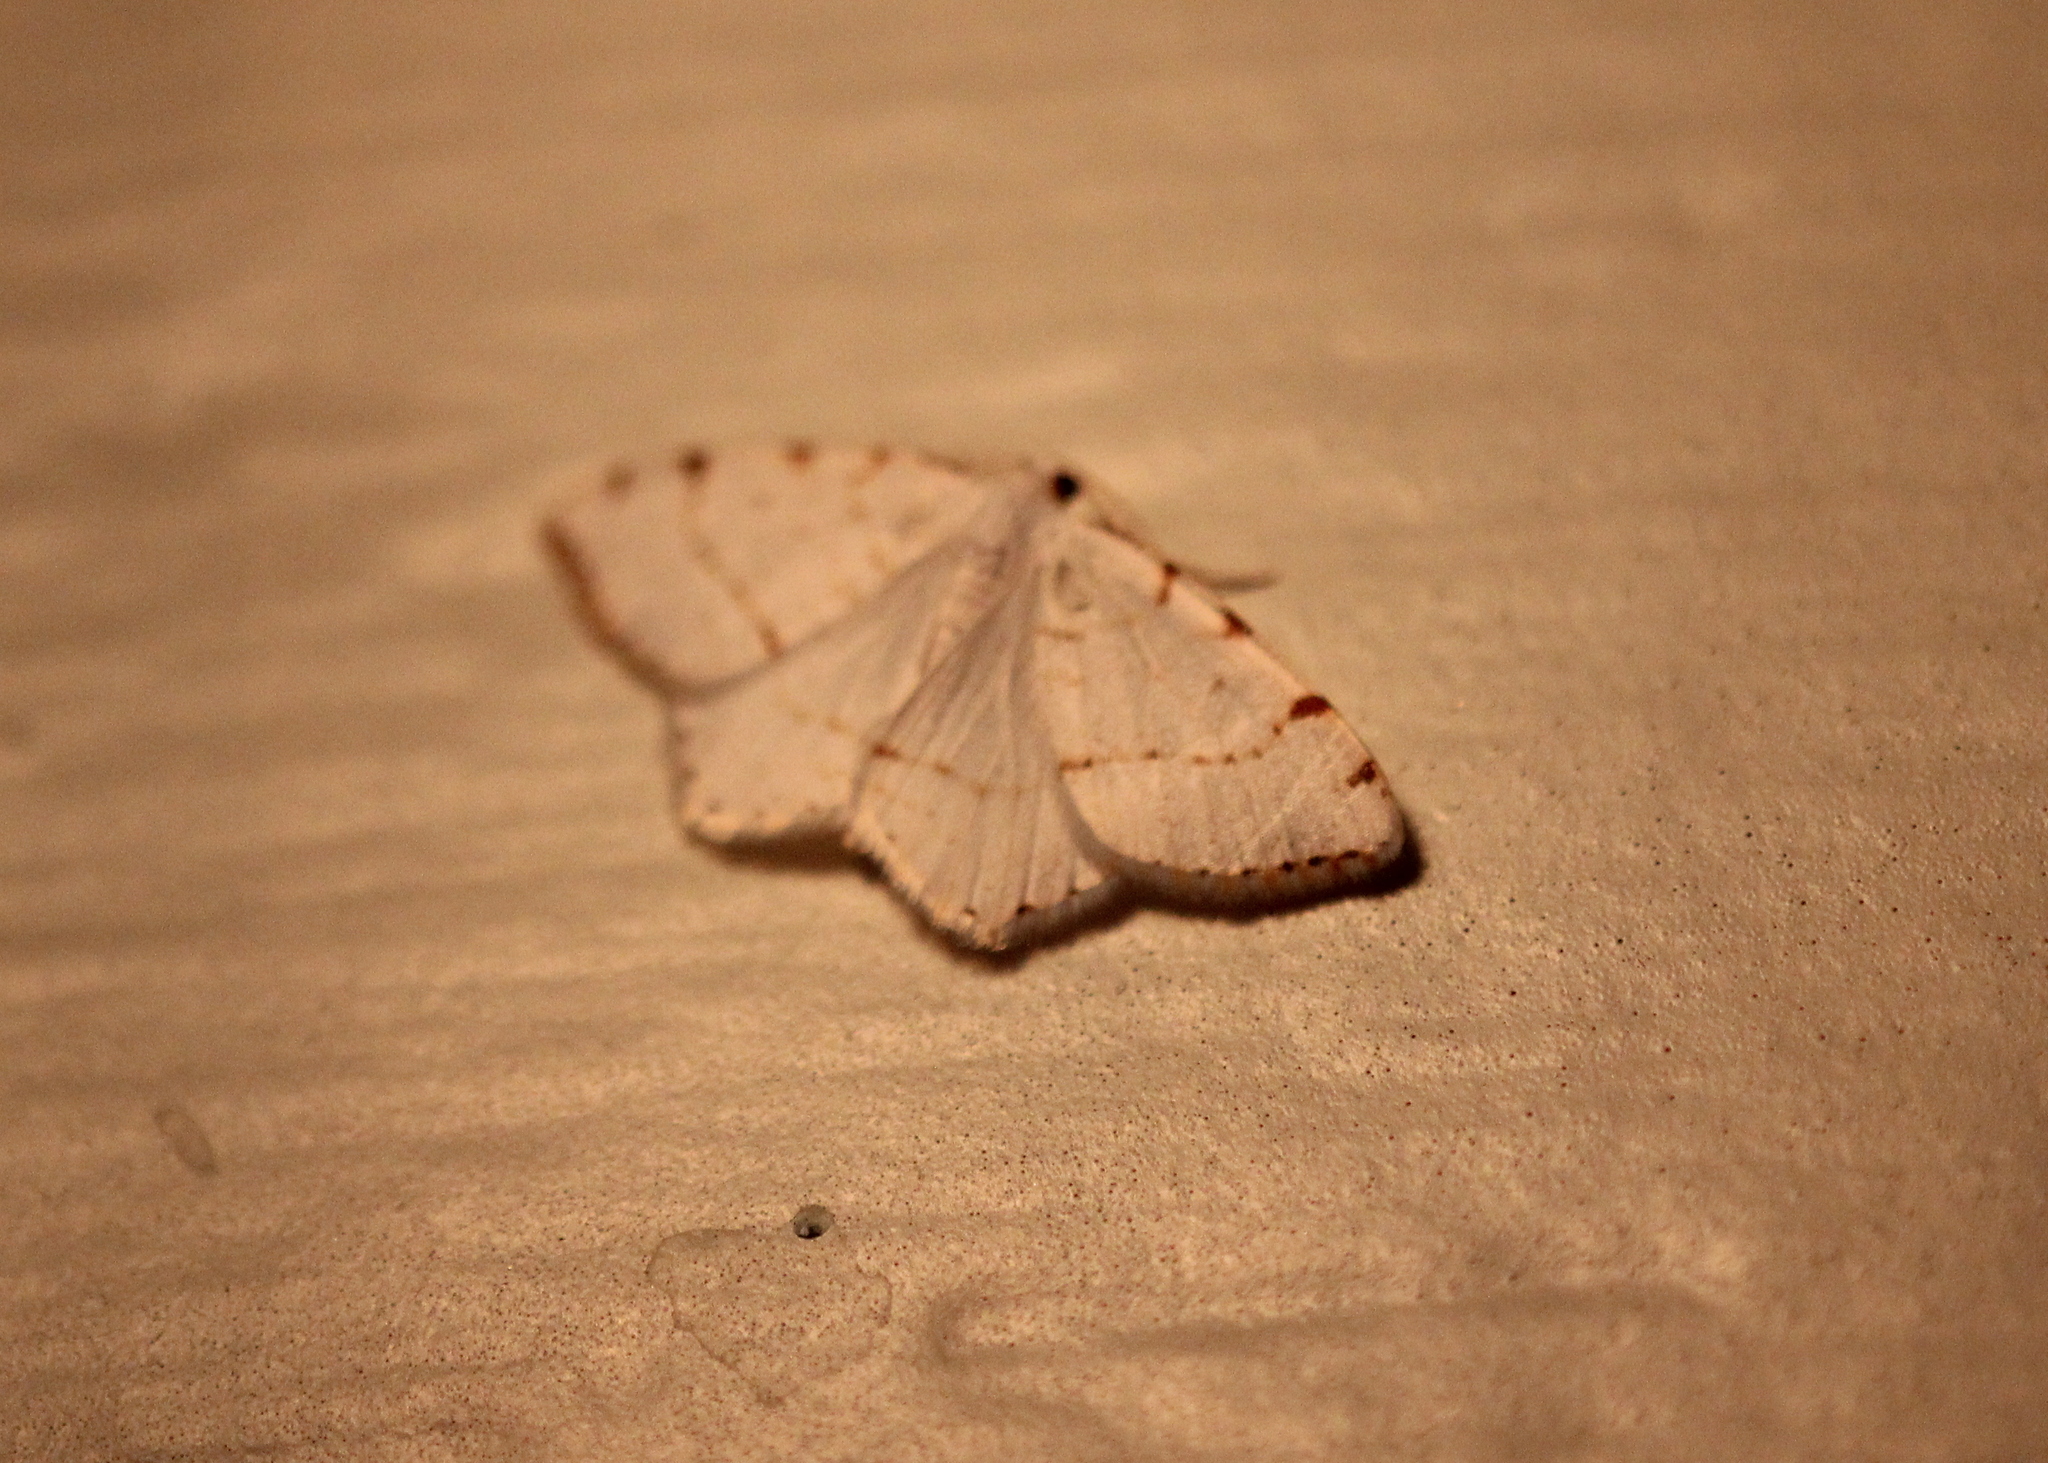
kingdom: Animalia
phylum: Arthropoda
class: Insecta
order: Lepidoptera
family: Geometridae
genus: Macaria
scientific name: Macaria pustularia
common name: Lesser maple spanworm moth
